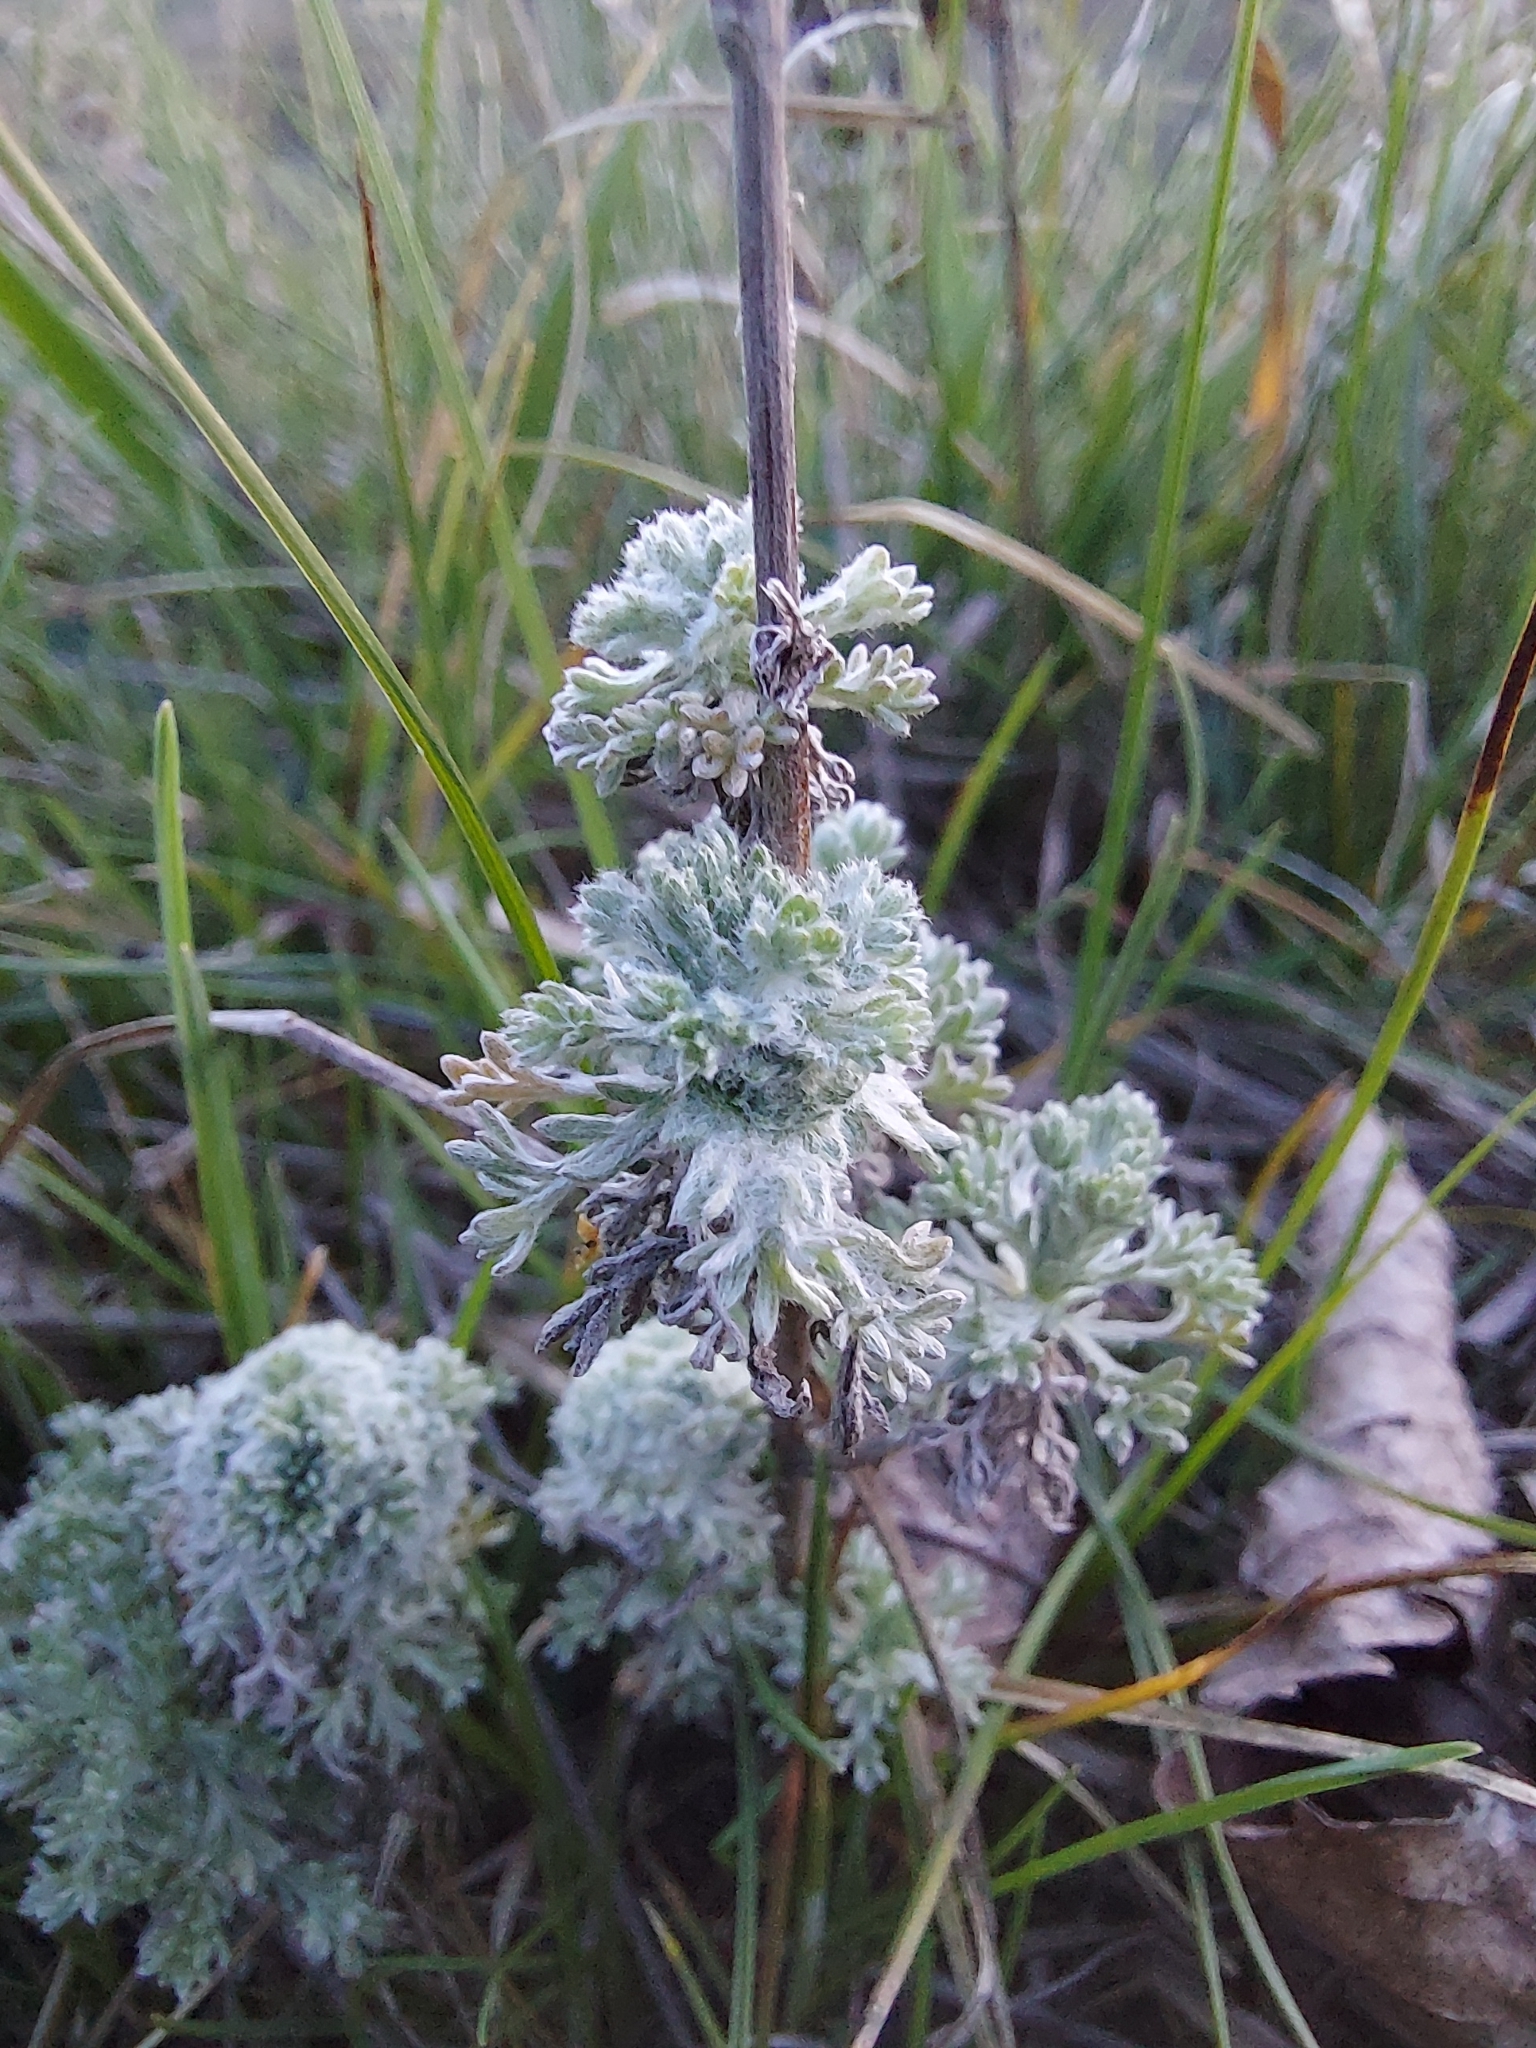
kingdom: Plantae
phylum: Tracheophyta
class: Magnoliopsida
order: Asterales
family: Asteraceae
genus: Artemisia
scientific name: Artemisia absinthium
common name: Wormwood
